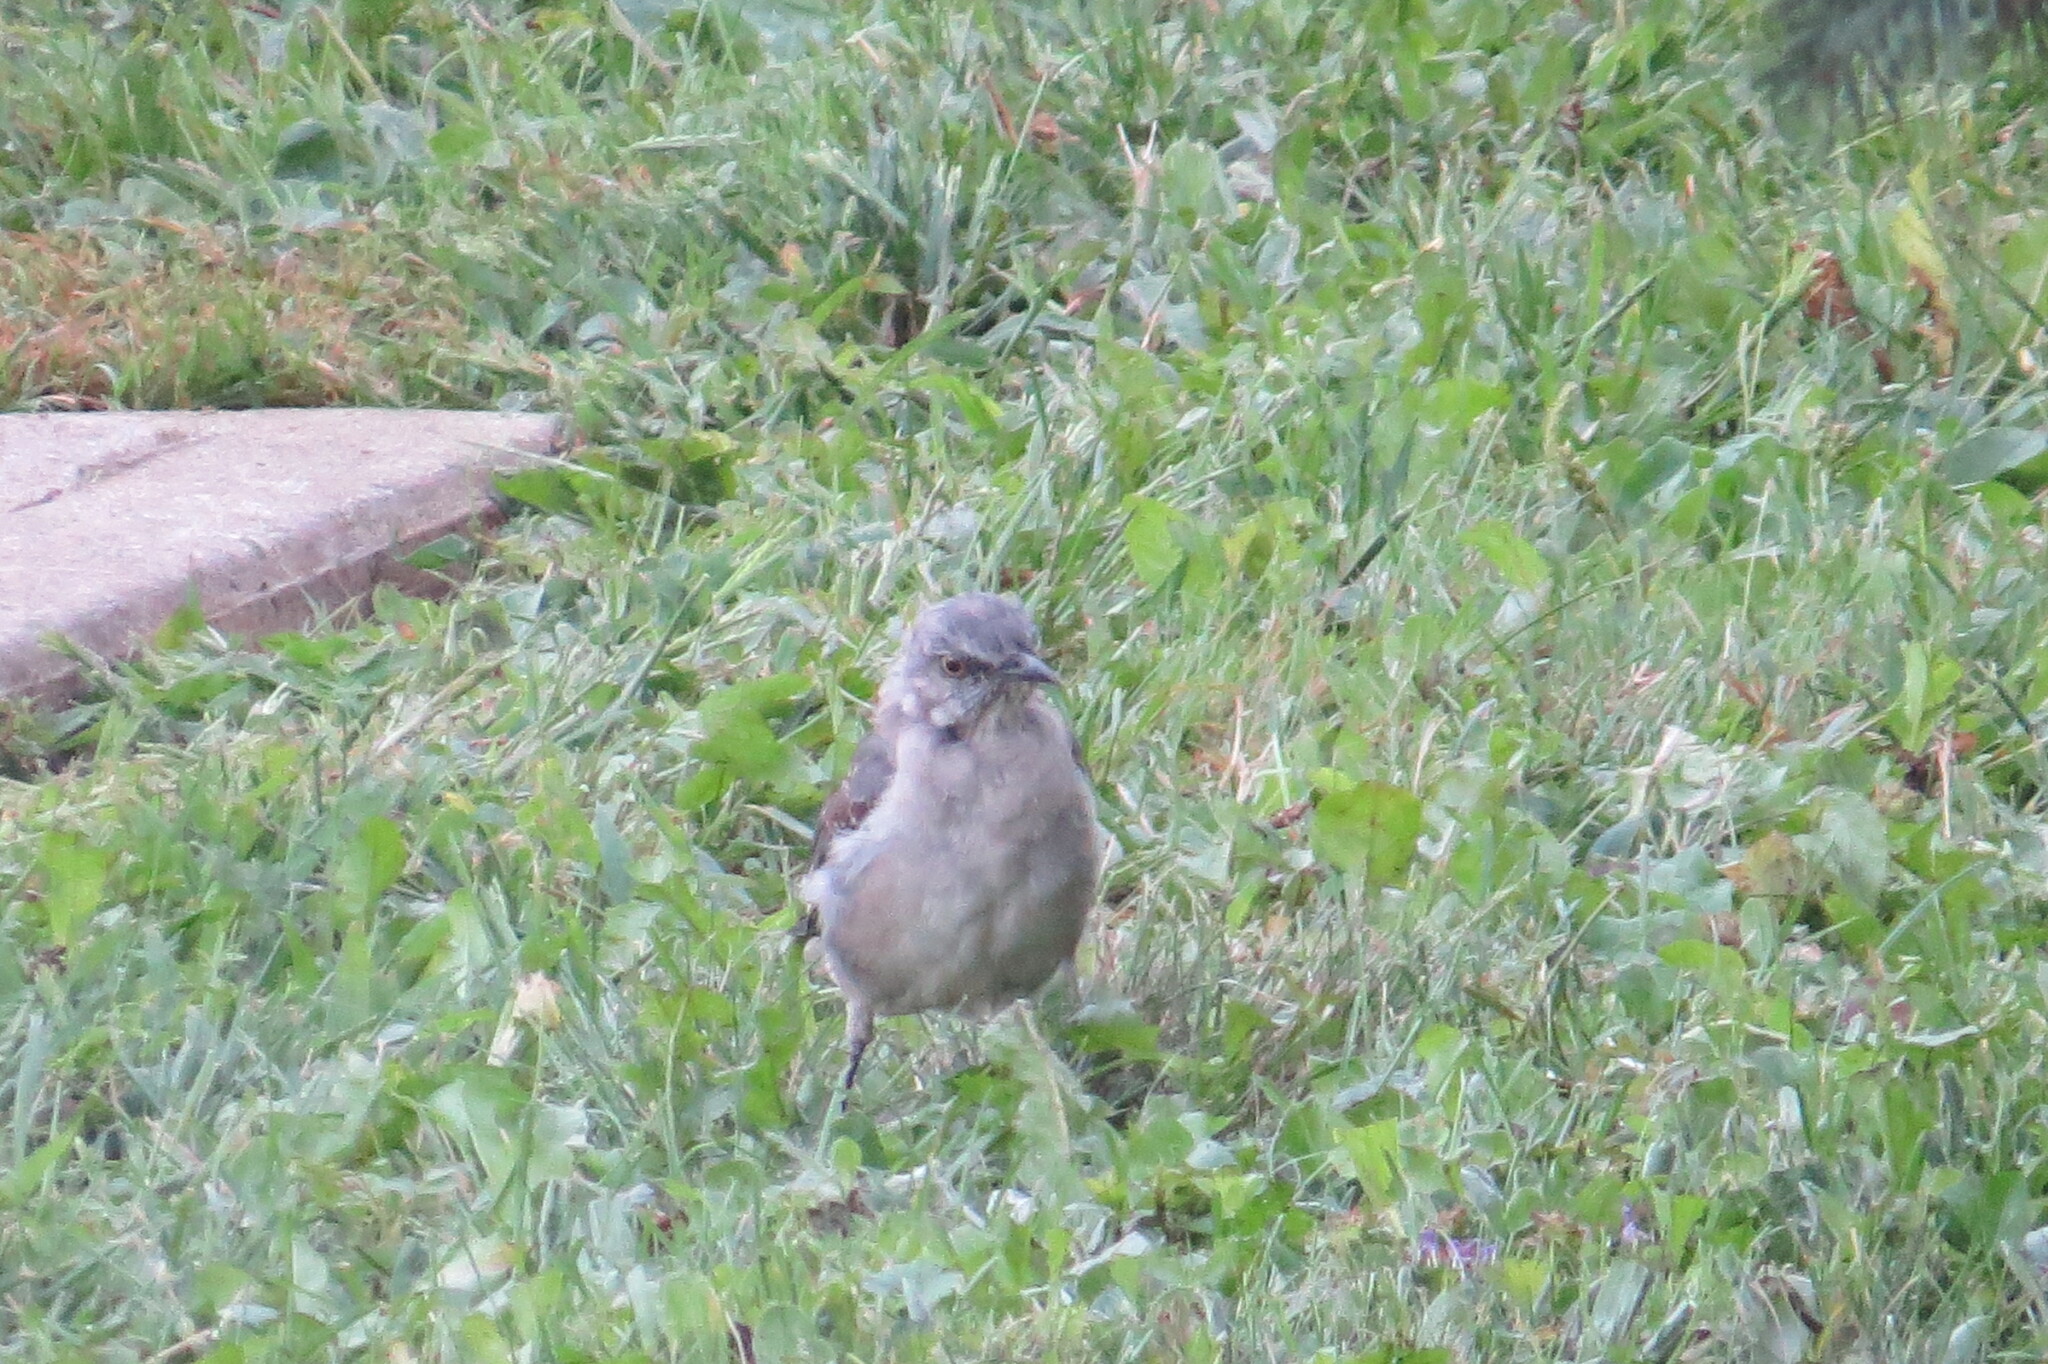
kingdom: Animalia
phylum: Chordata
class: Aves
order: Passeriformes
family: Mimidae
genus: Mimus
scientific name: Mimus polyglottos
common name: Northern mockingbird
